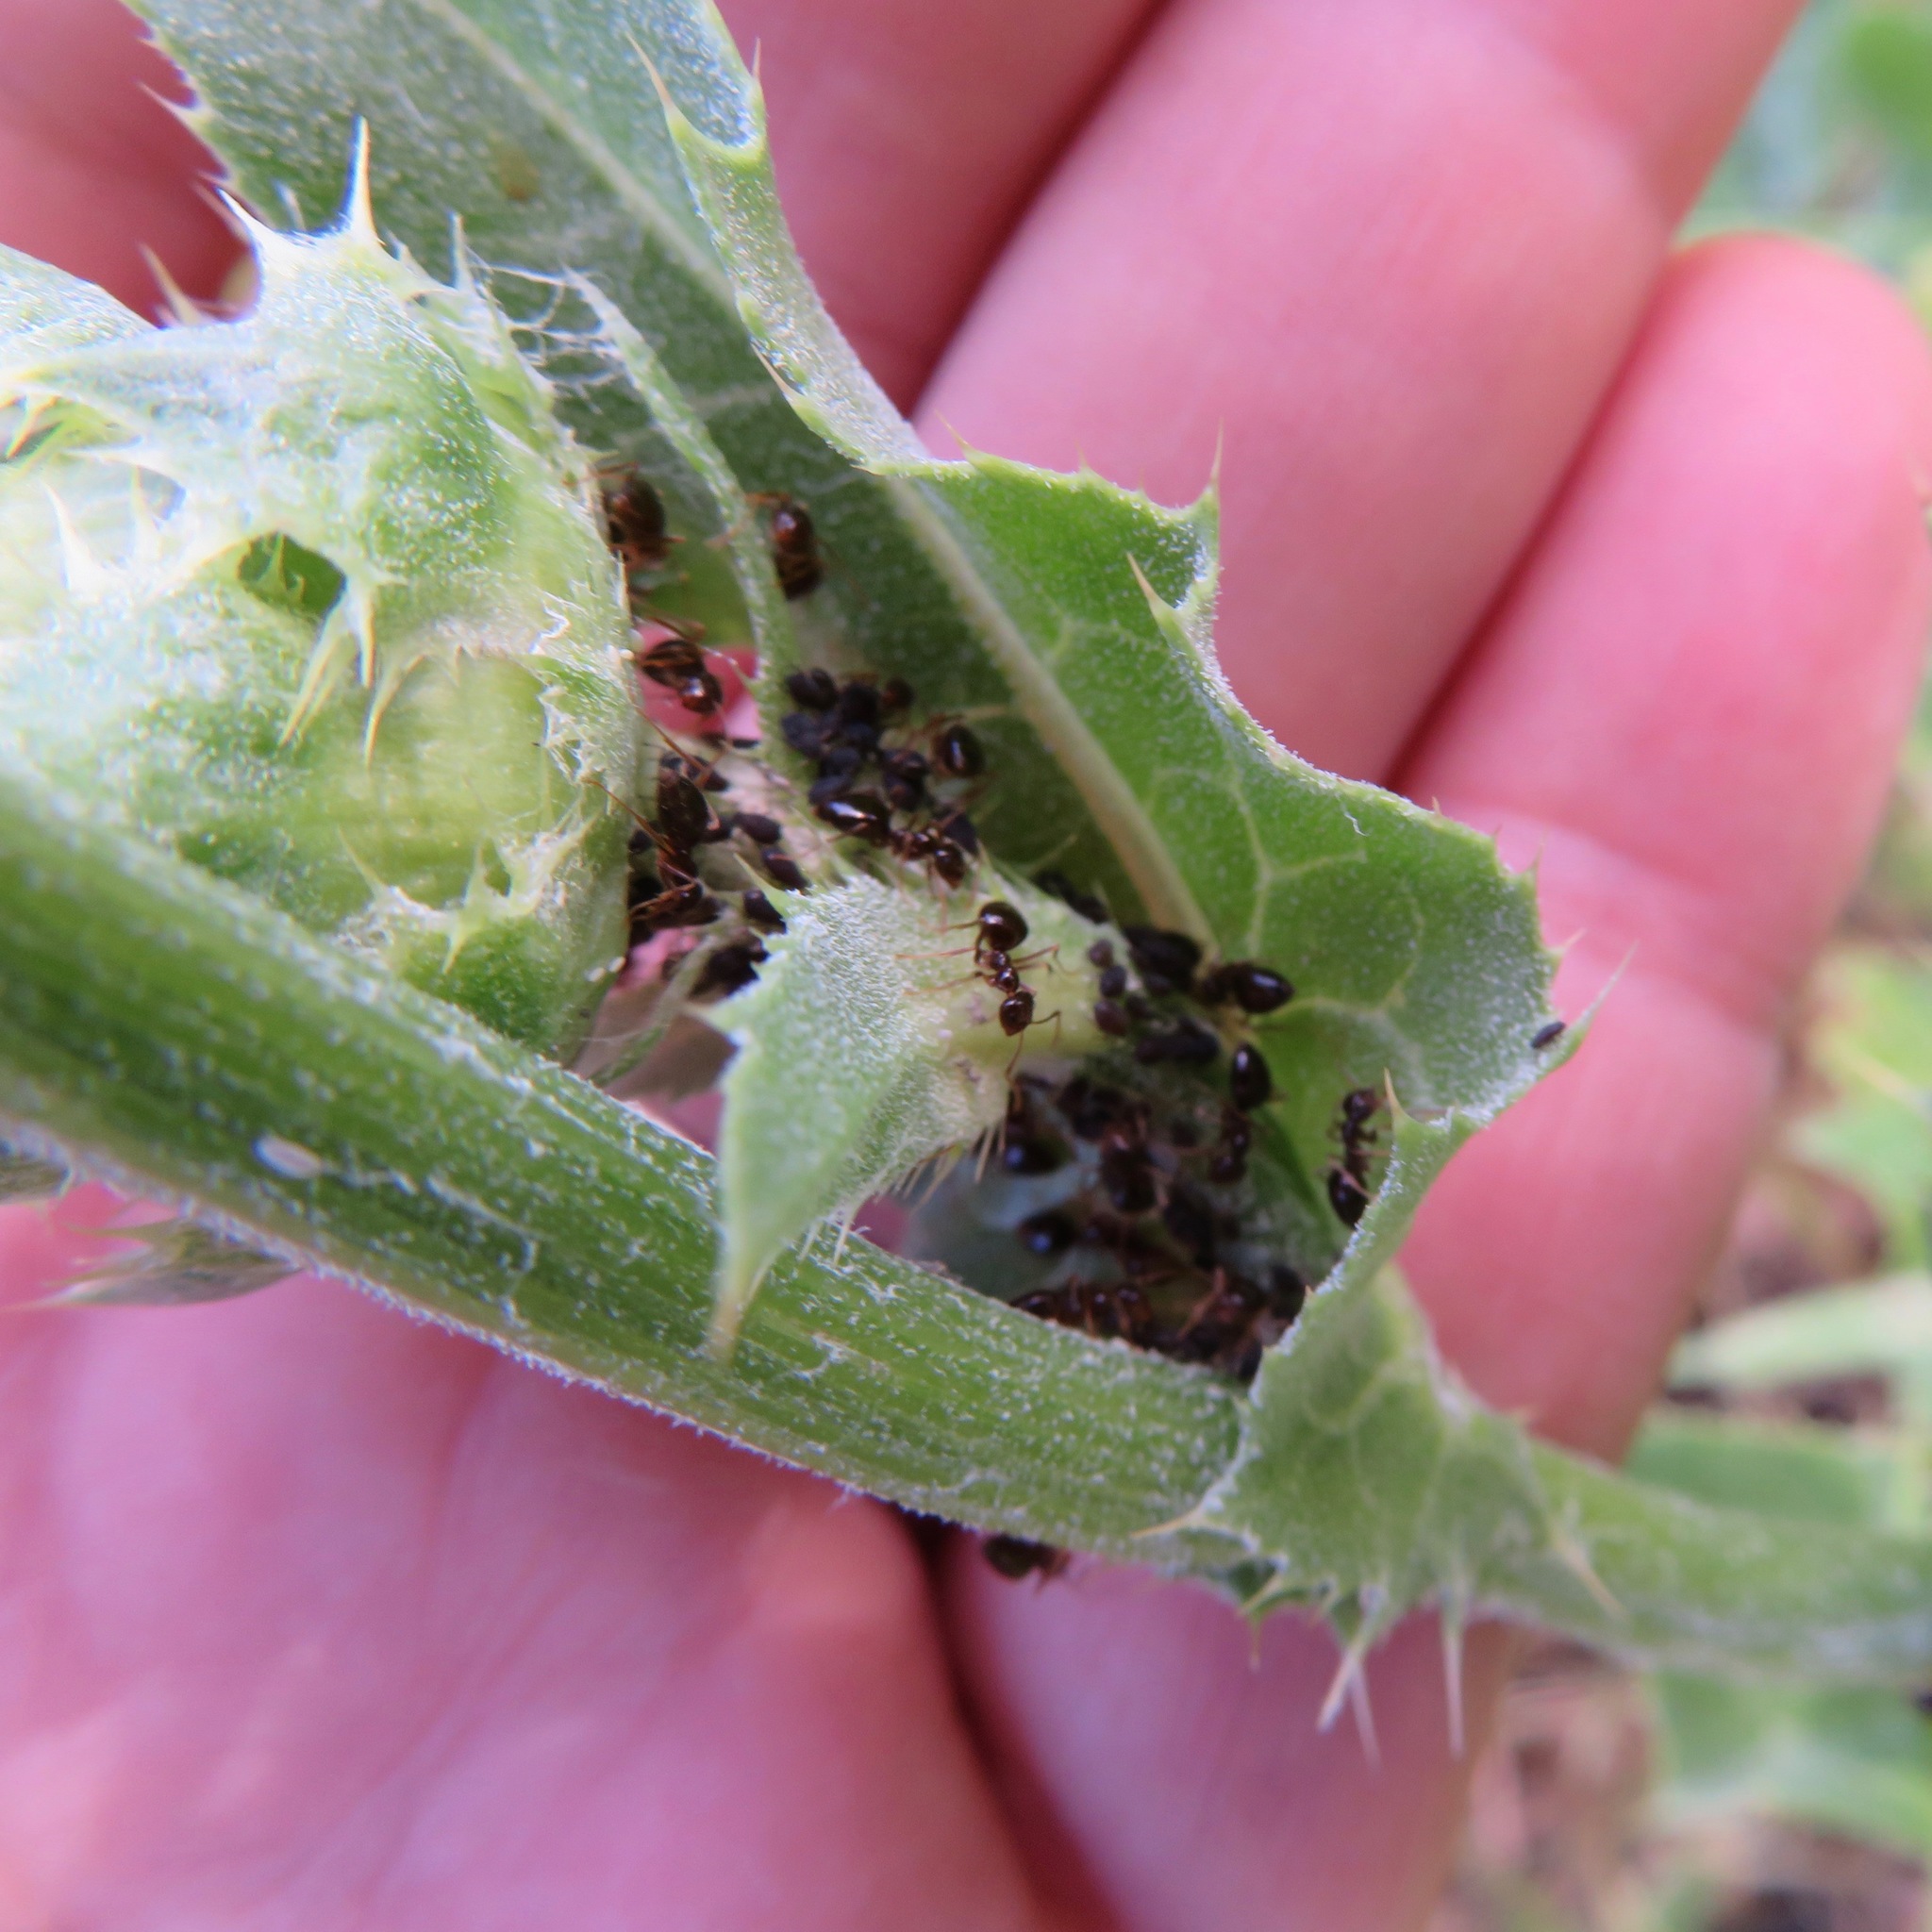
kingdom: Animalia
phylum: Arthropoda
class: Insecta
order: Hymenoptera
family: Formicidae
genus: Prenolepis
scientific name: Prenolepis imparis
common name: Small honey ant
